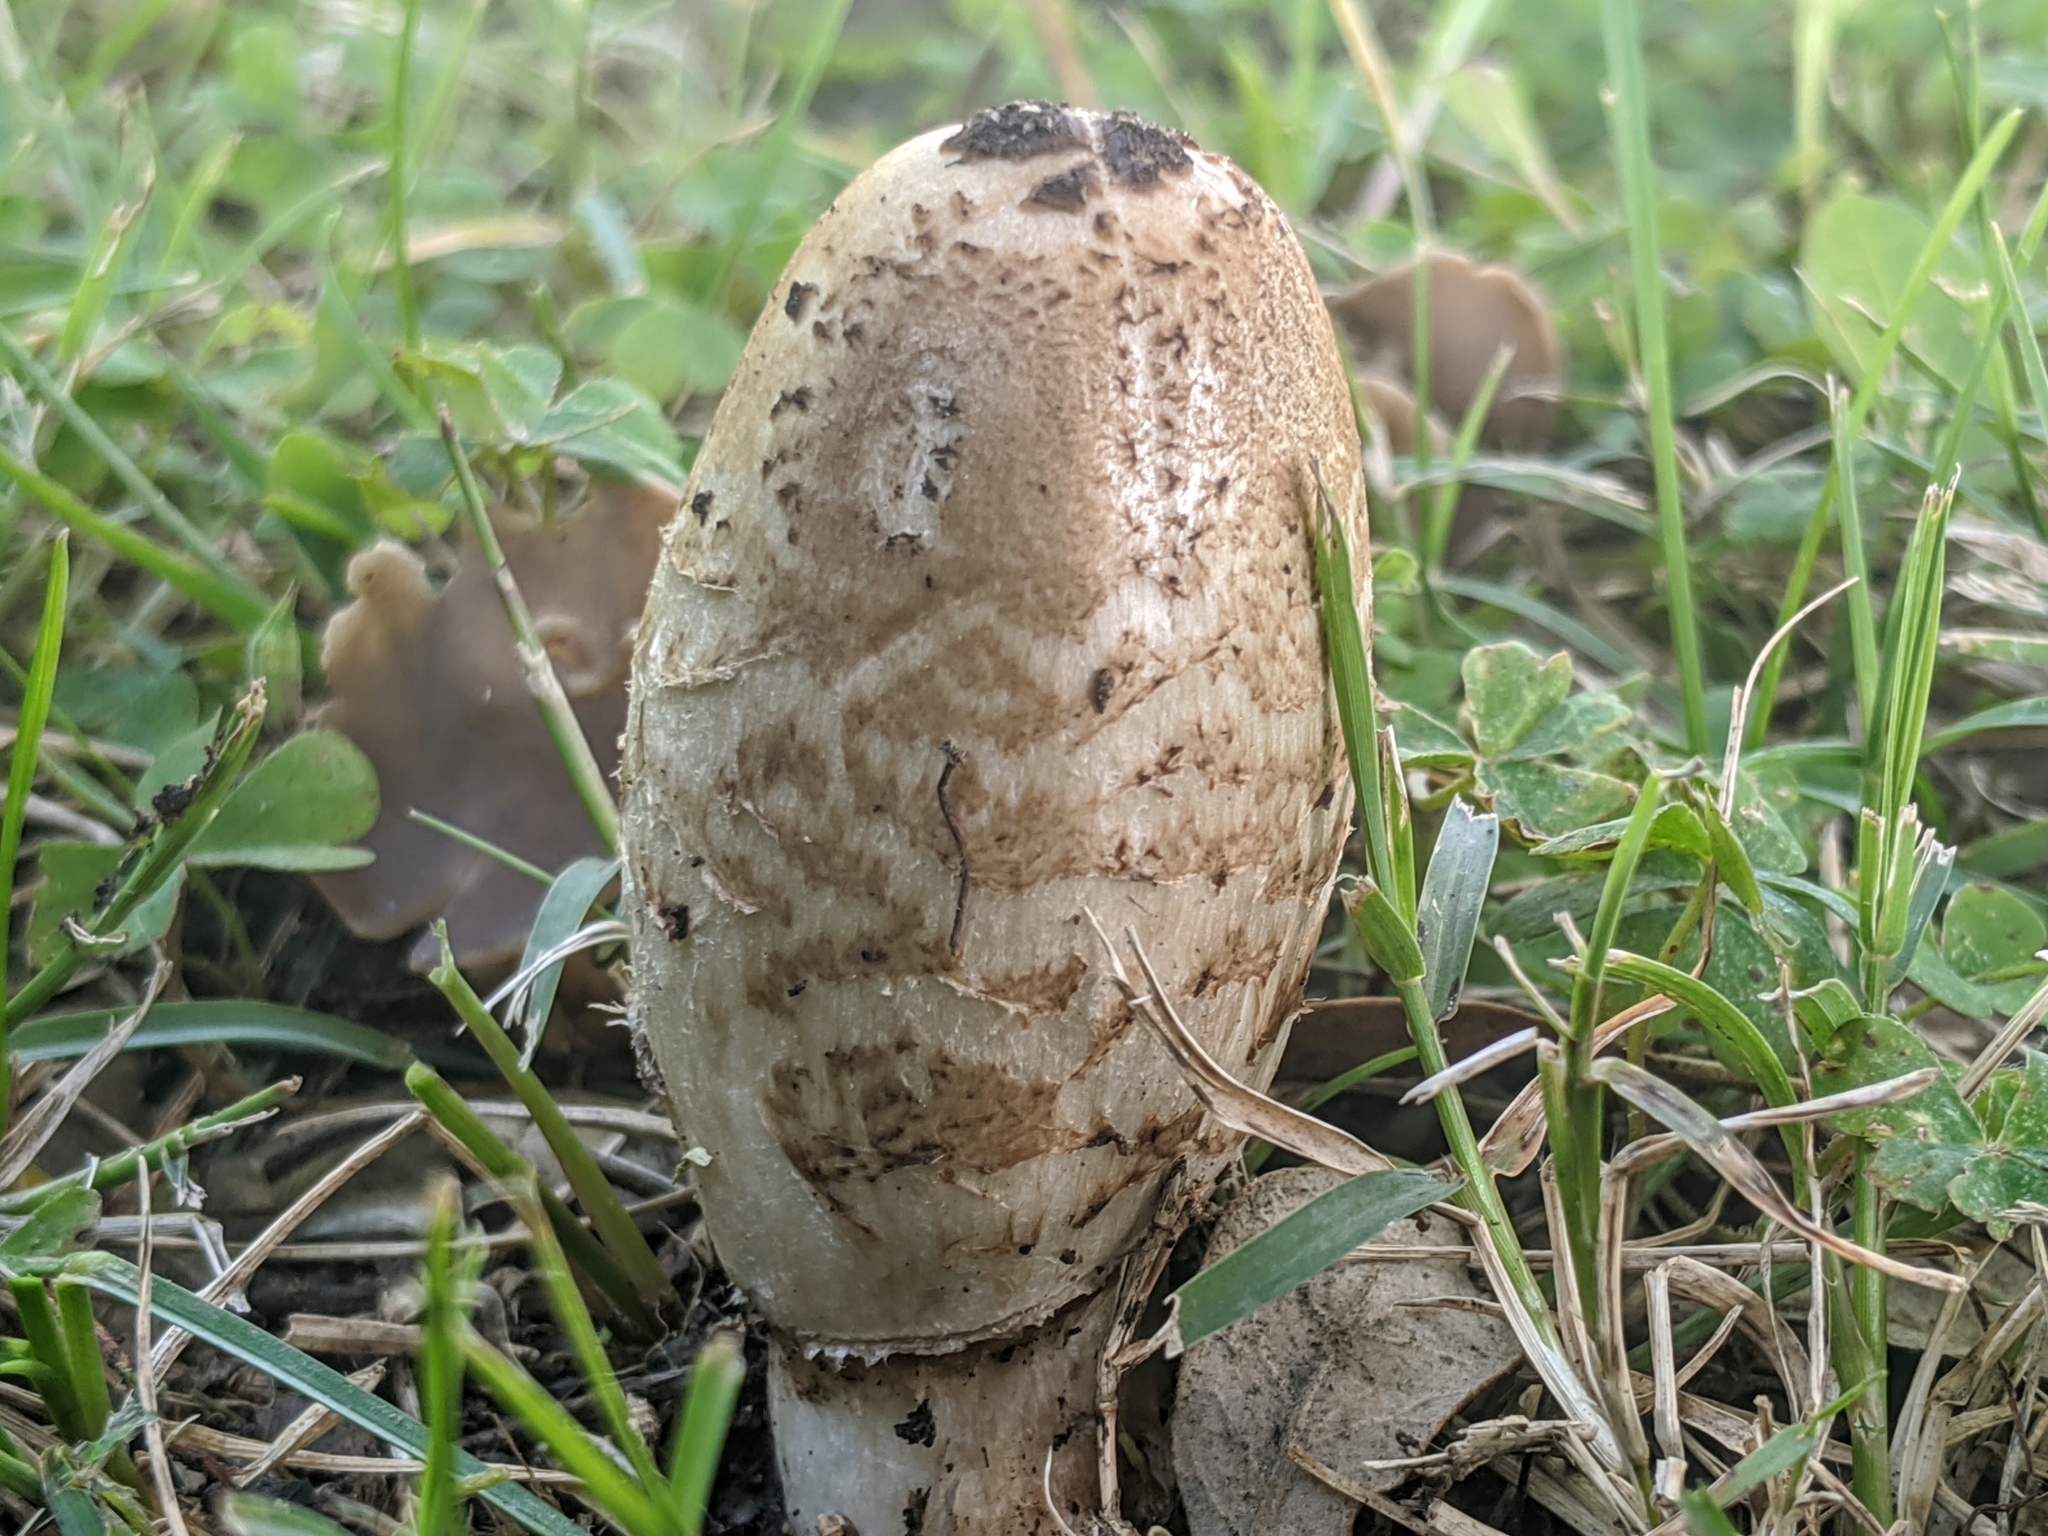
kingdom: Fungi
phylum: Basidiomycota
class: Agaricomycetes
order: Agaricales
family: Agaricaceae
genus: Coprinus
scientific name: Coprinus comatus
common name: Lawyer's wig
